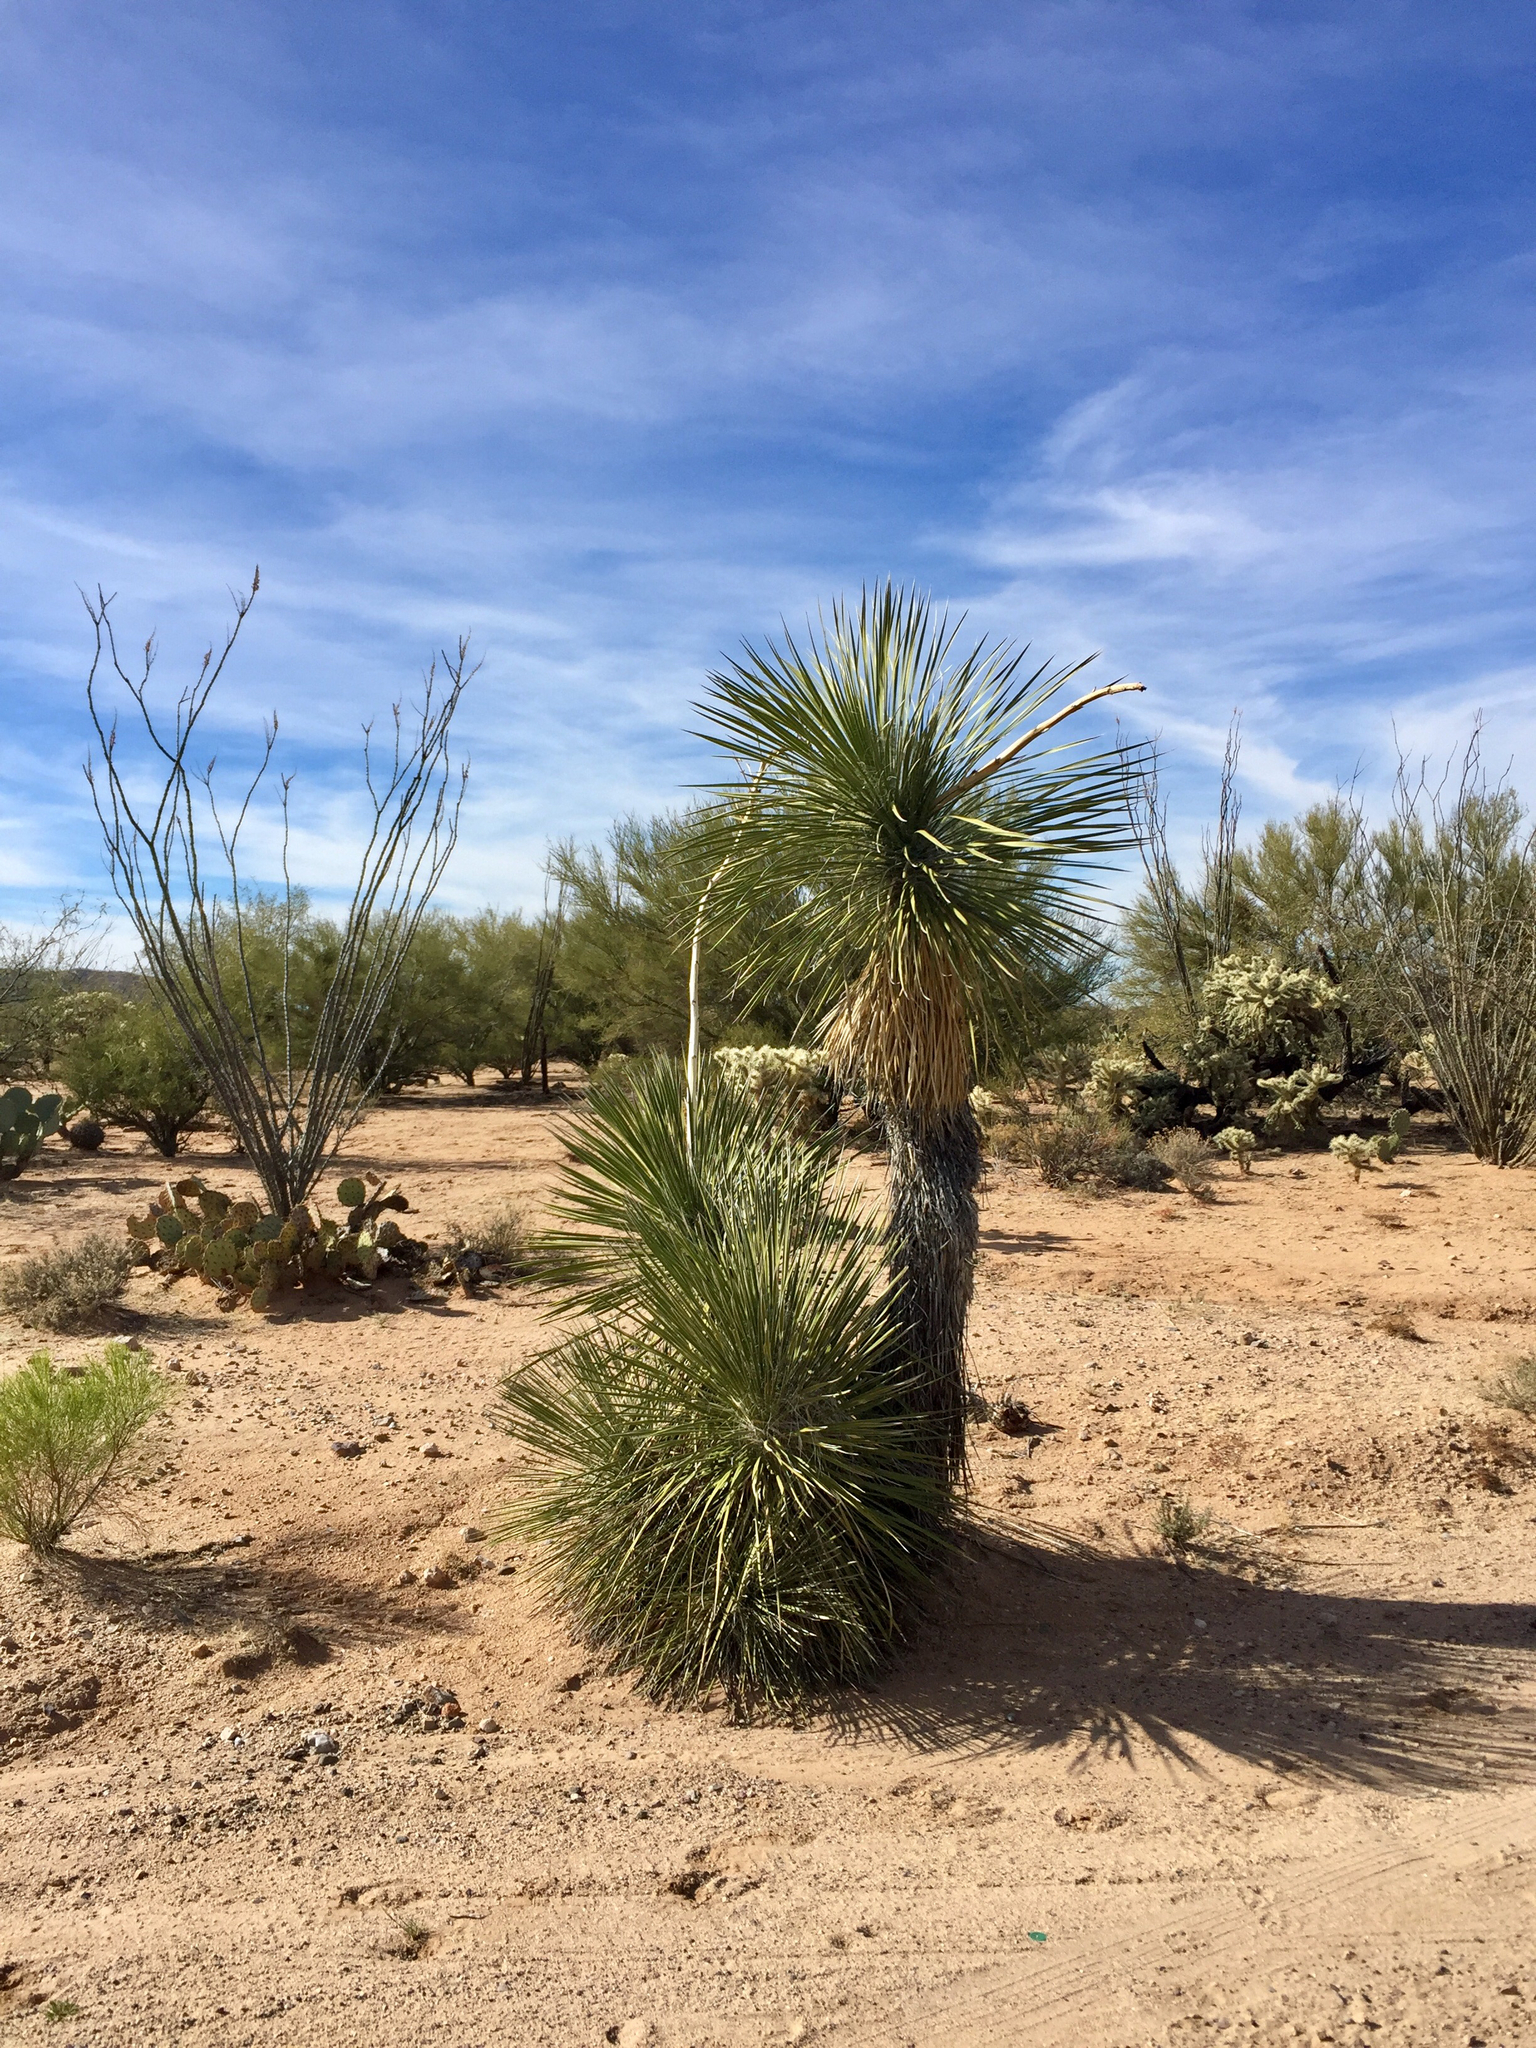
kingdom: Plantae
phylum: Tracheophyta
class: Liliopsida
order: Asparagales
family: Asparagaceae
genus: Yucca
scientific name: Yucca elata
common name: Palmella
